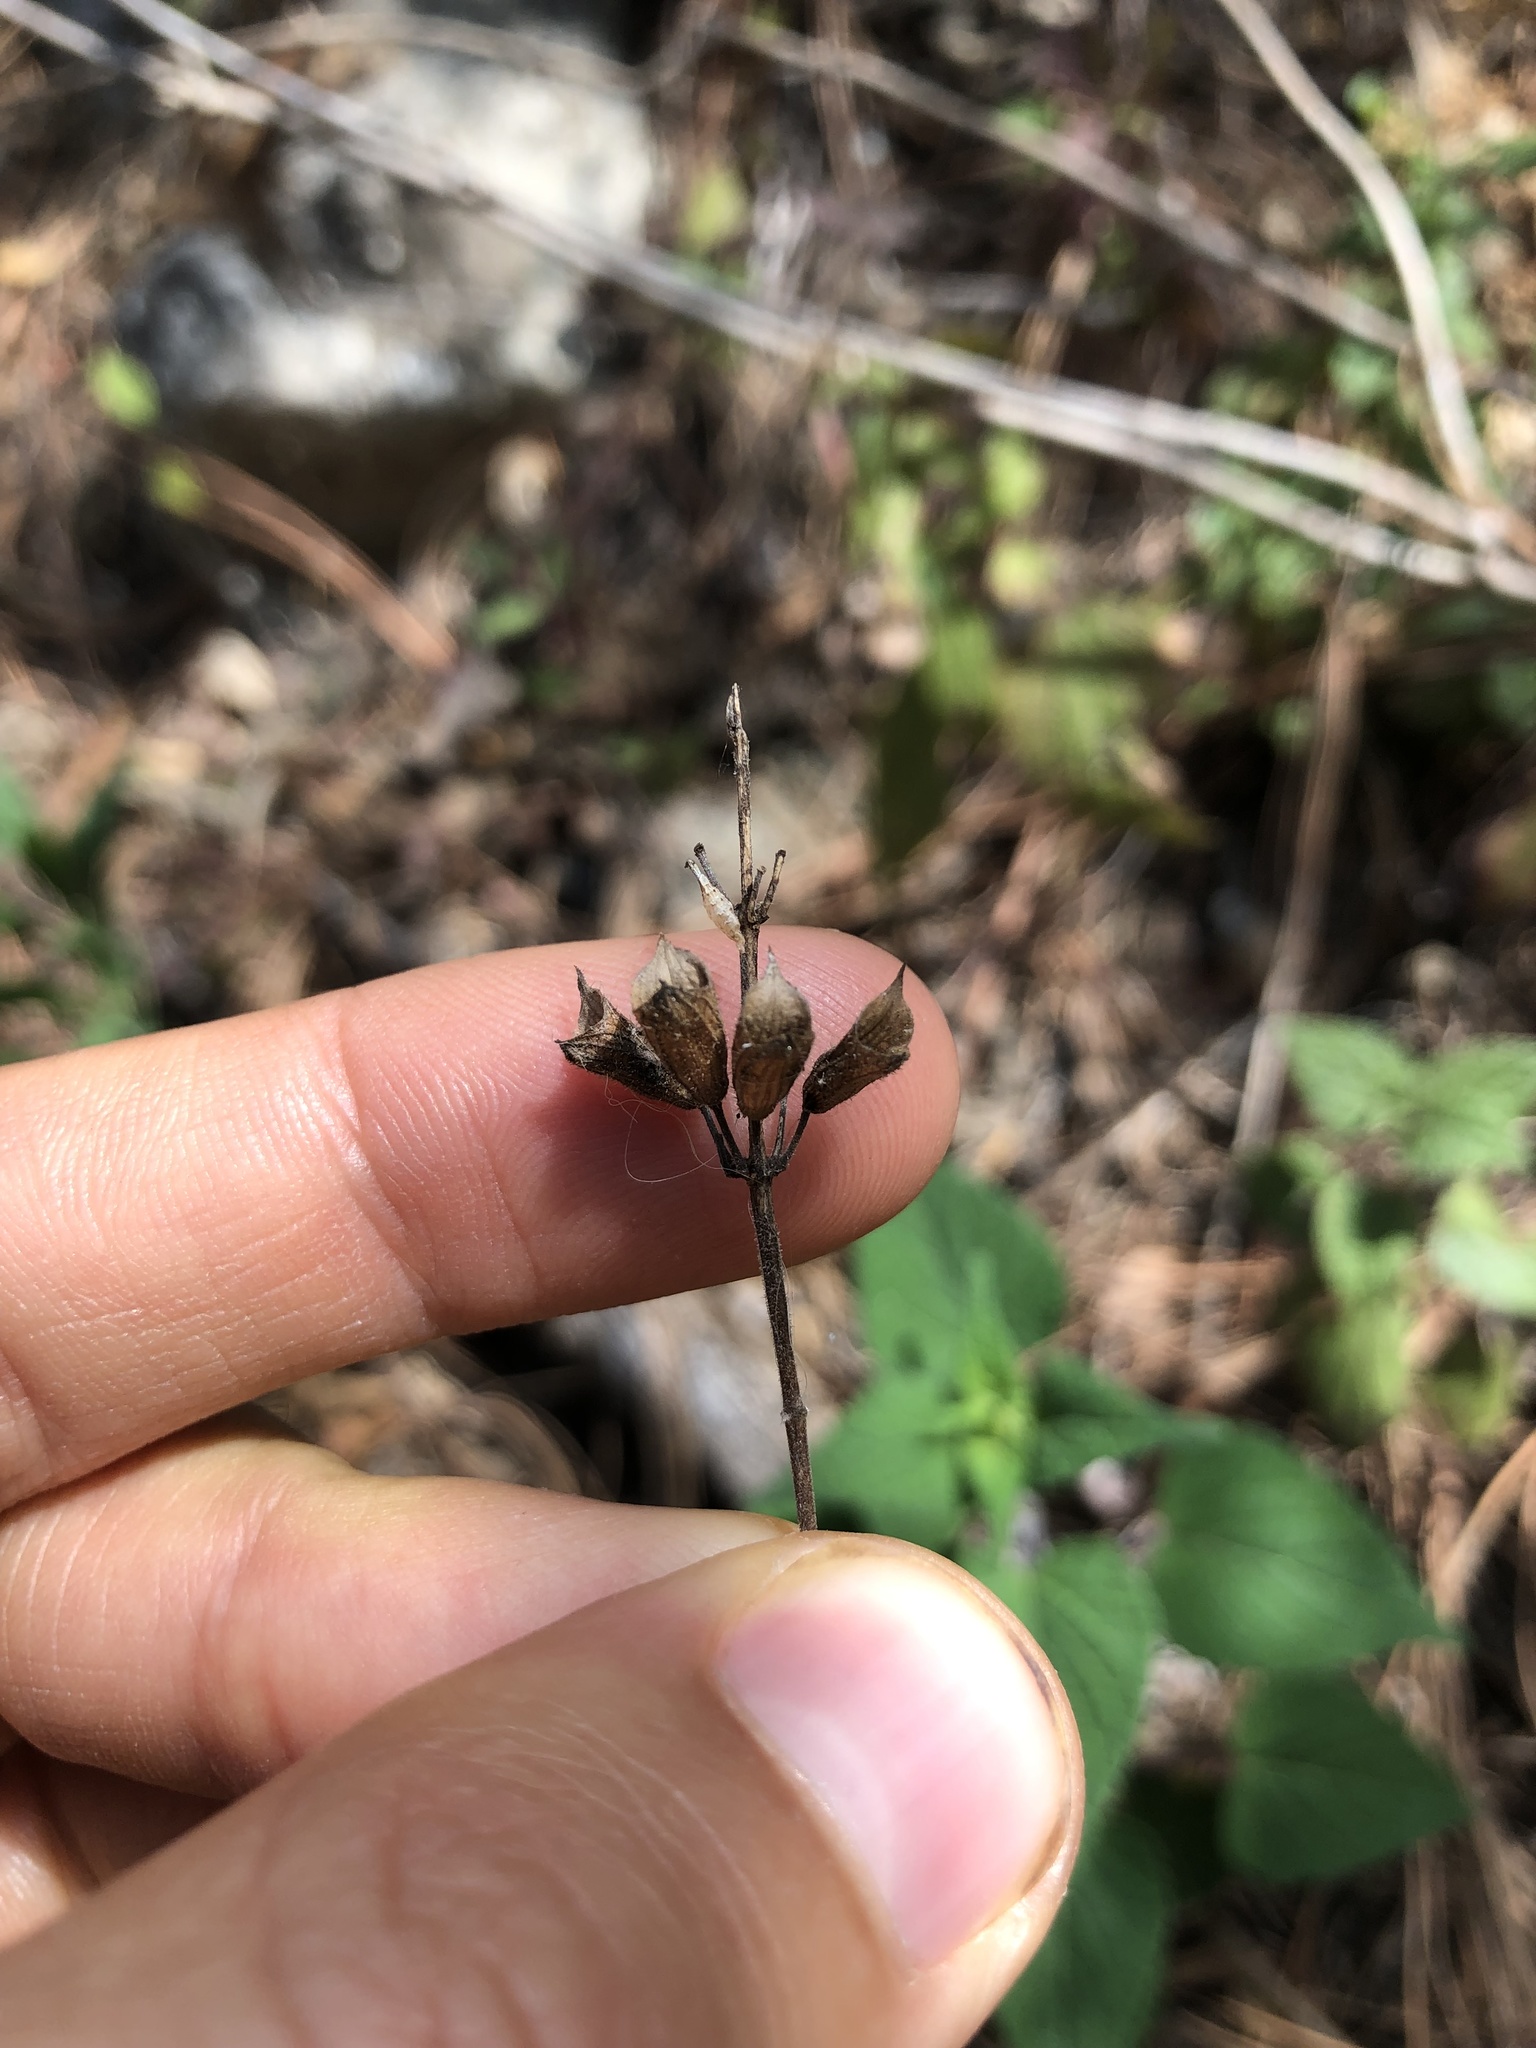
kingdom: Plantae
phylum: Tracheophyta
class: Magnoliopsida
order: Lamiales
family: Lamiaceae
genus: Salvia
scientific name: Salvia cinnabarina
